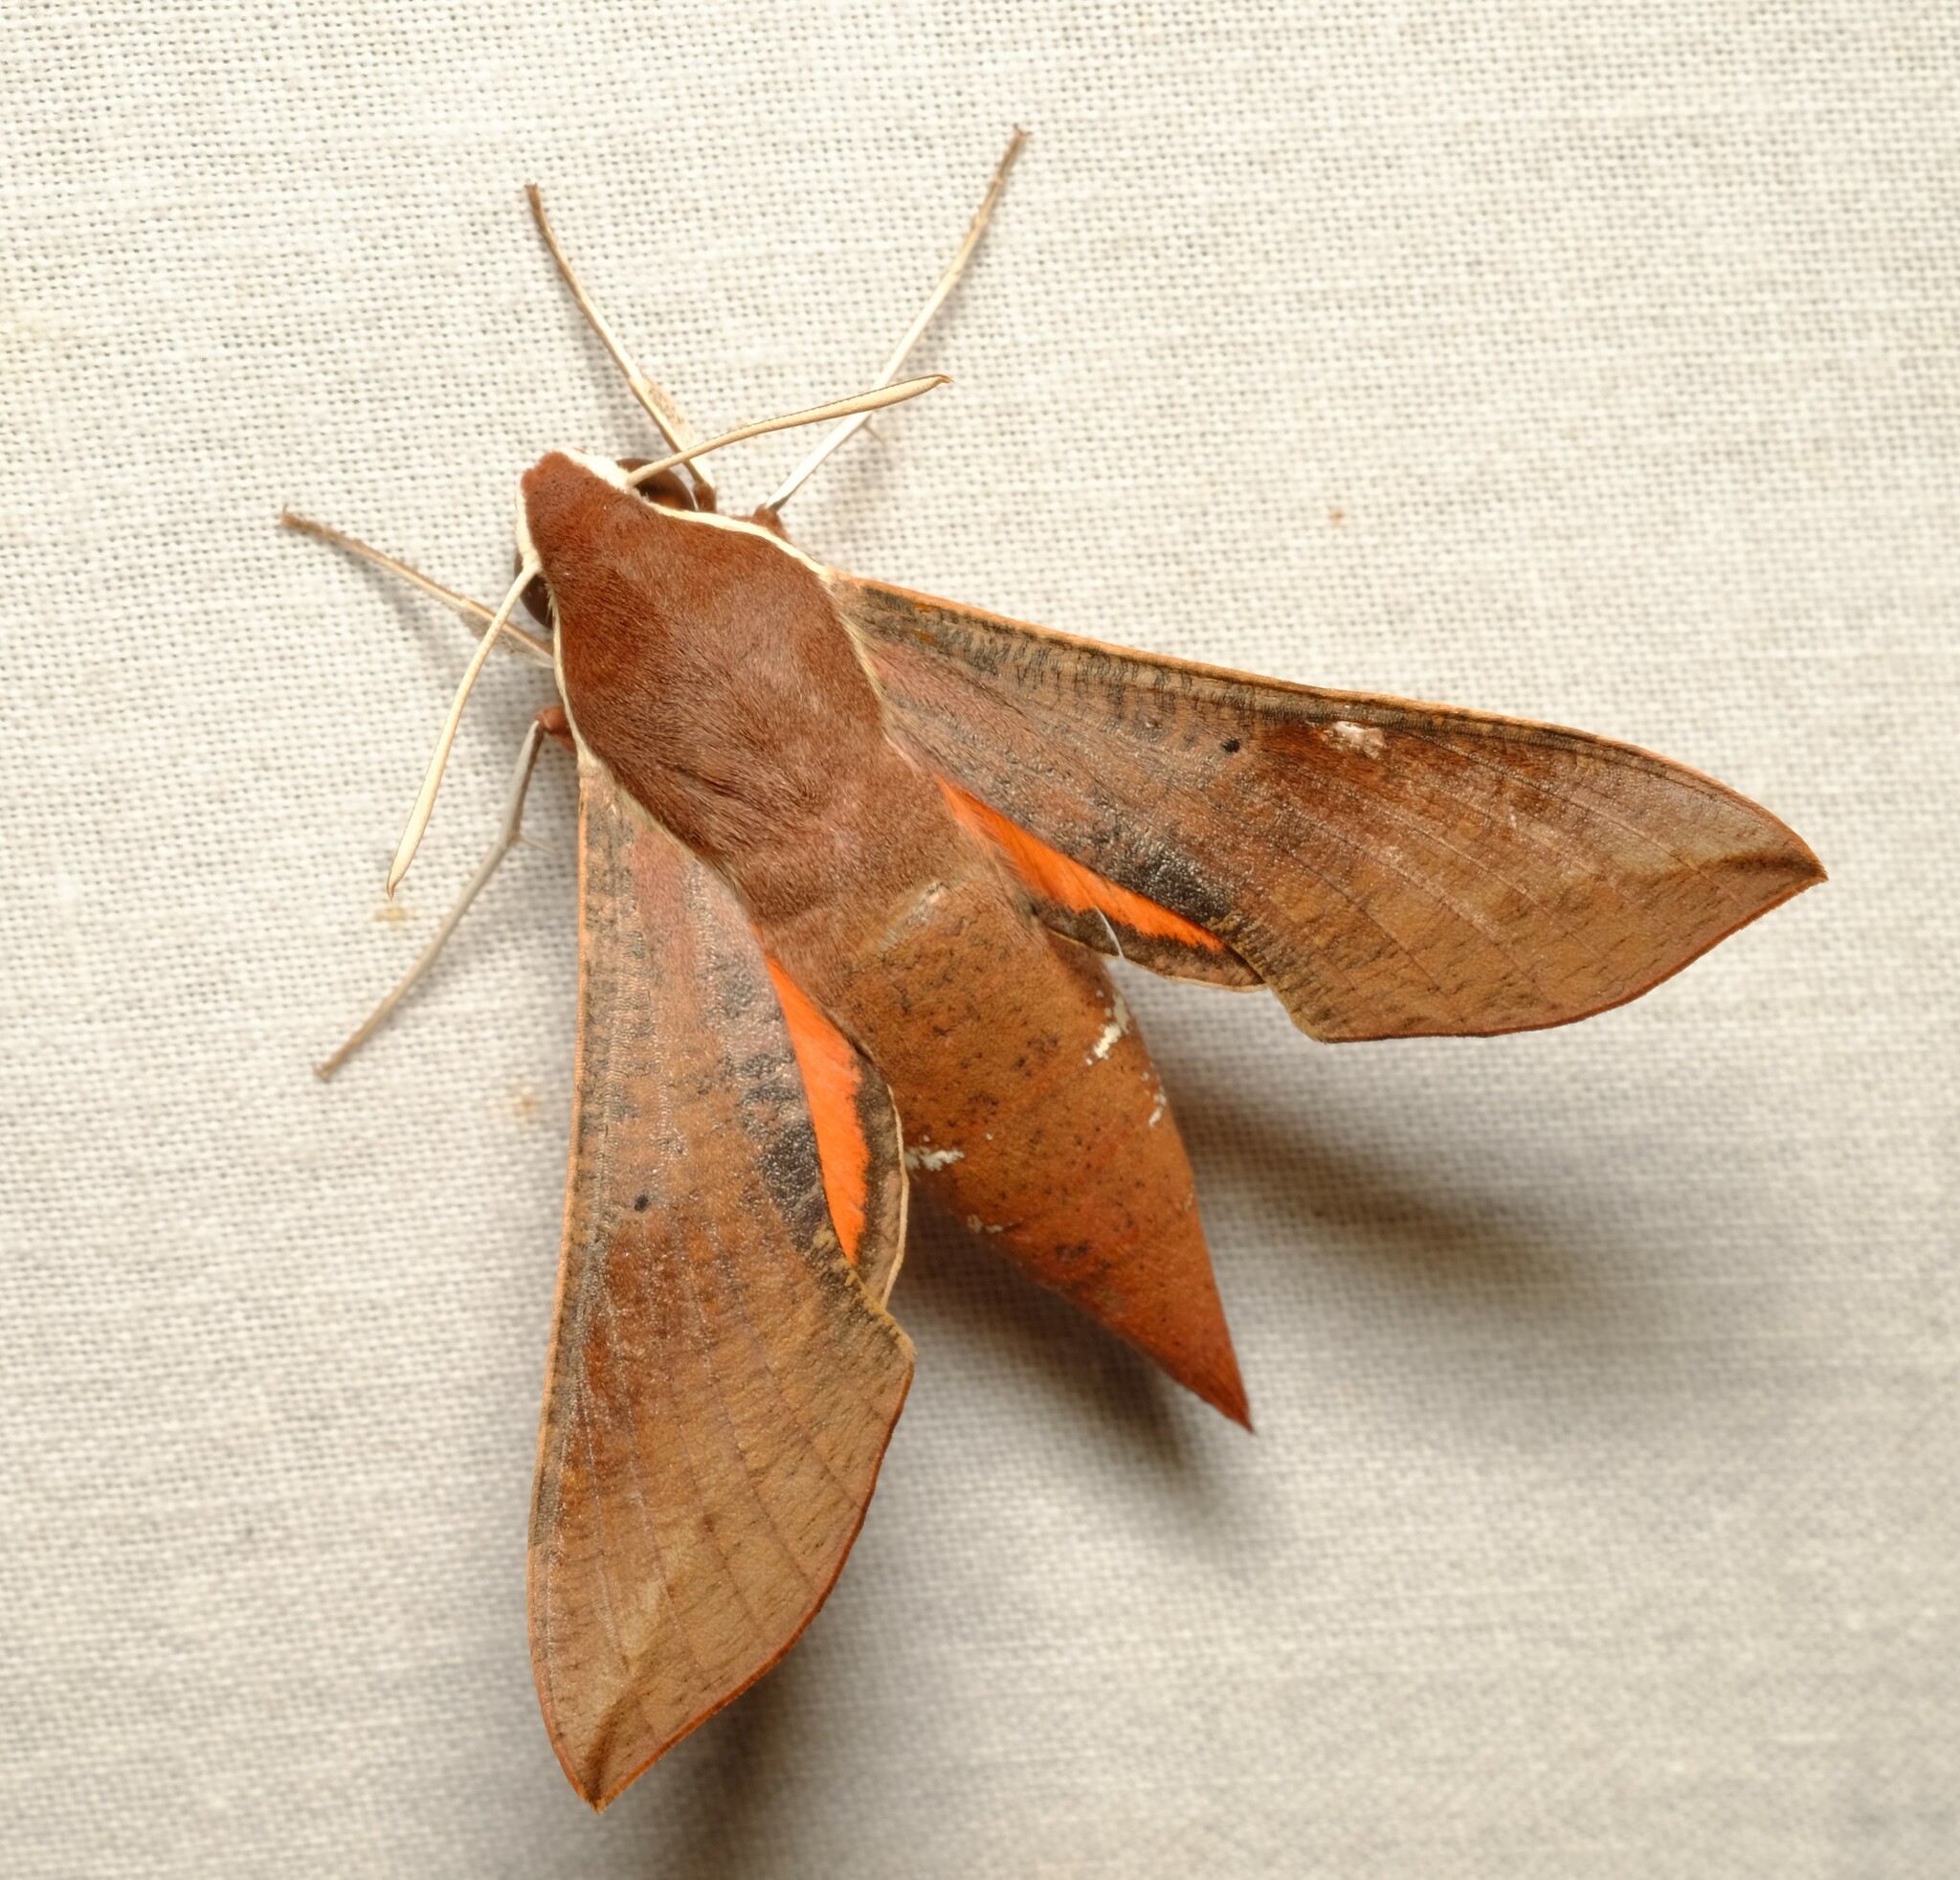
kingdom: Animalia
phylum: Arthropoda
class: Insecta
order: Lepidoptera
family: Sphingidae
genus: Hippotion
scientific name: Hippotion scrofa
